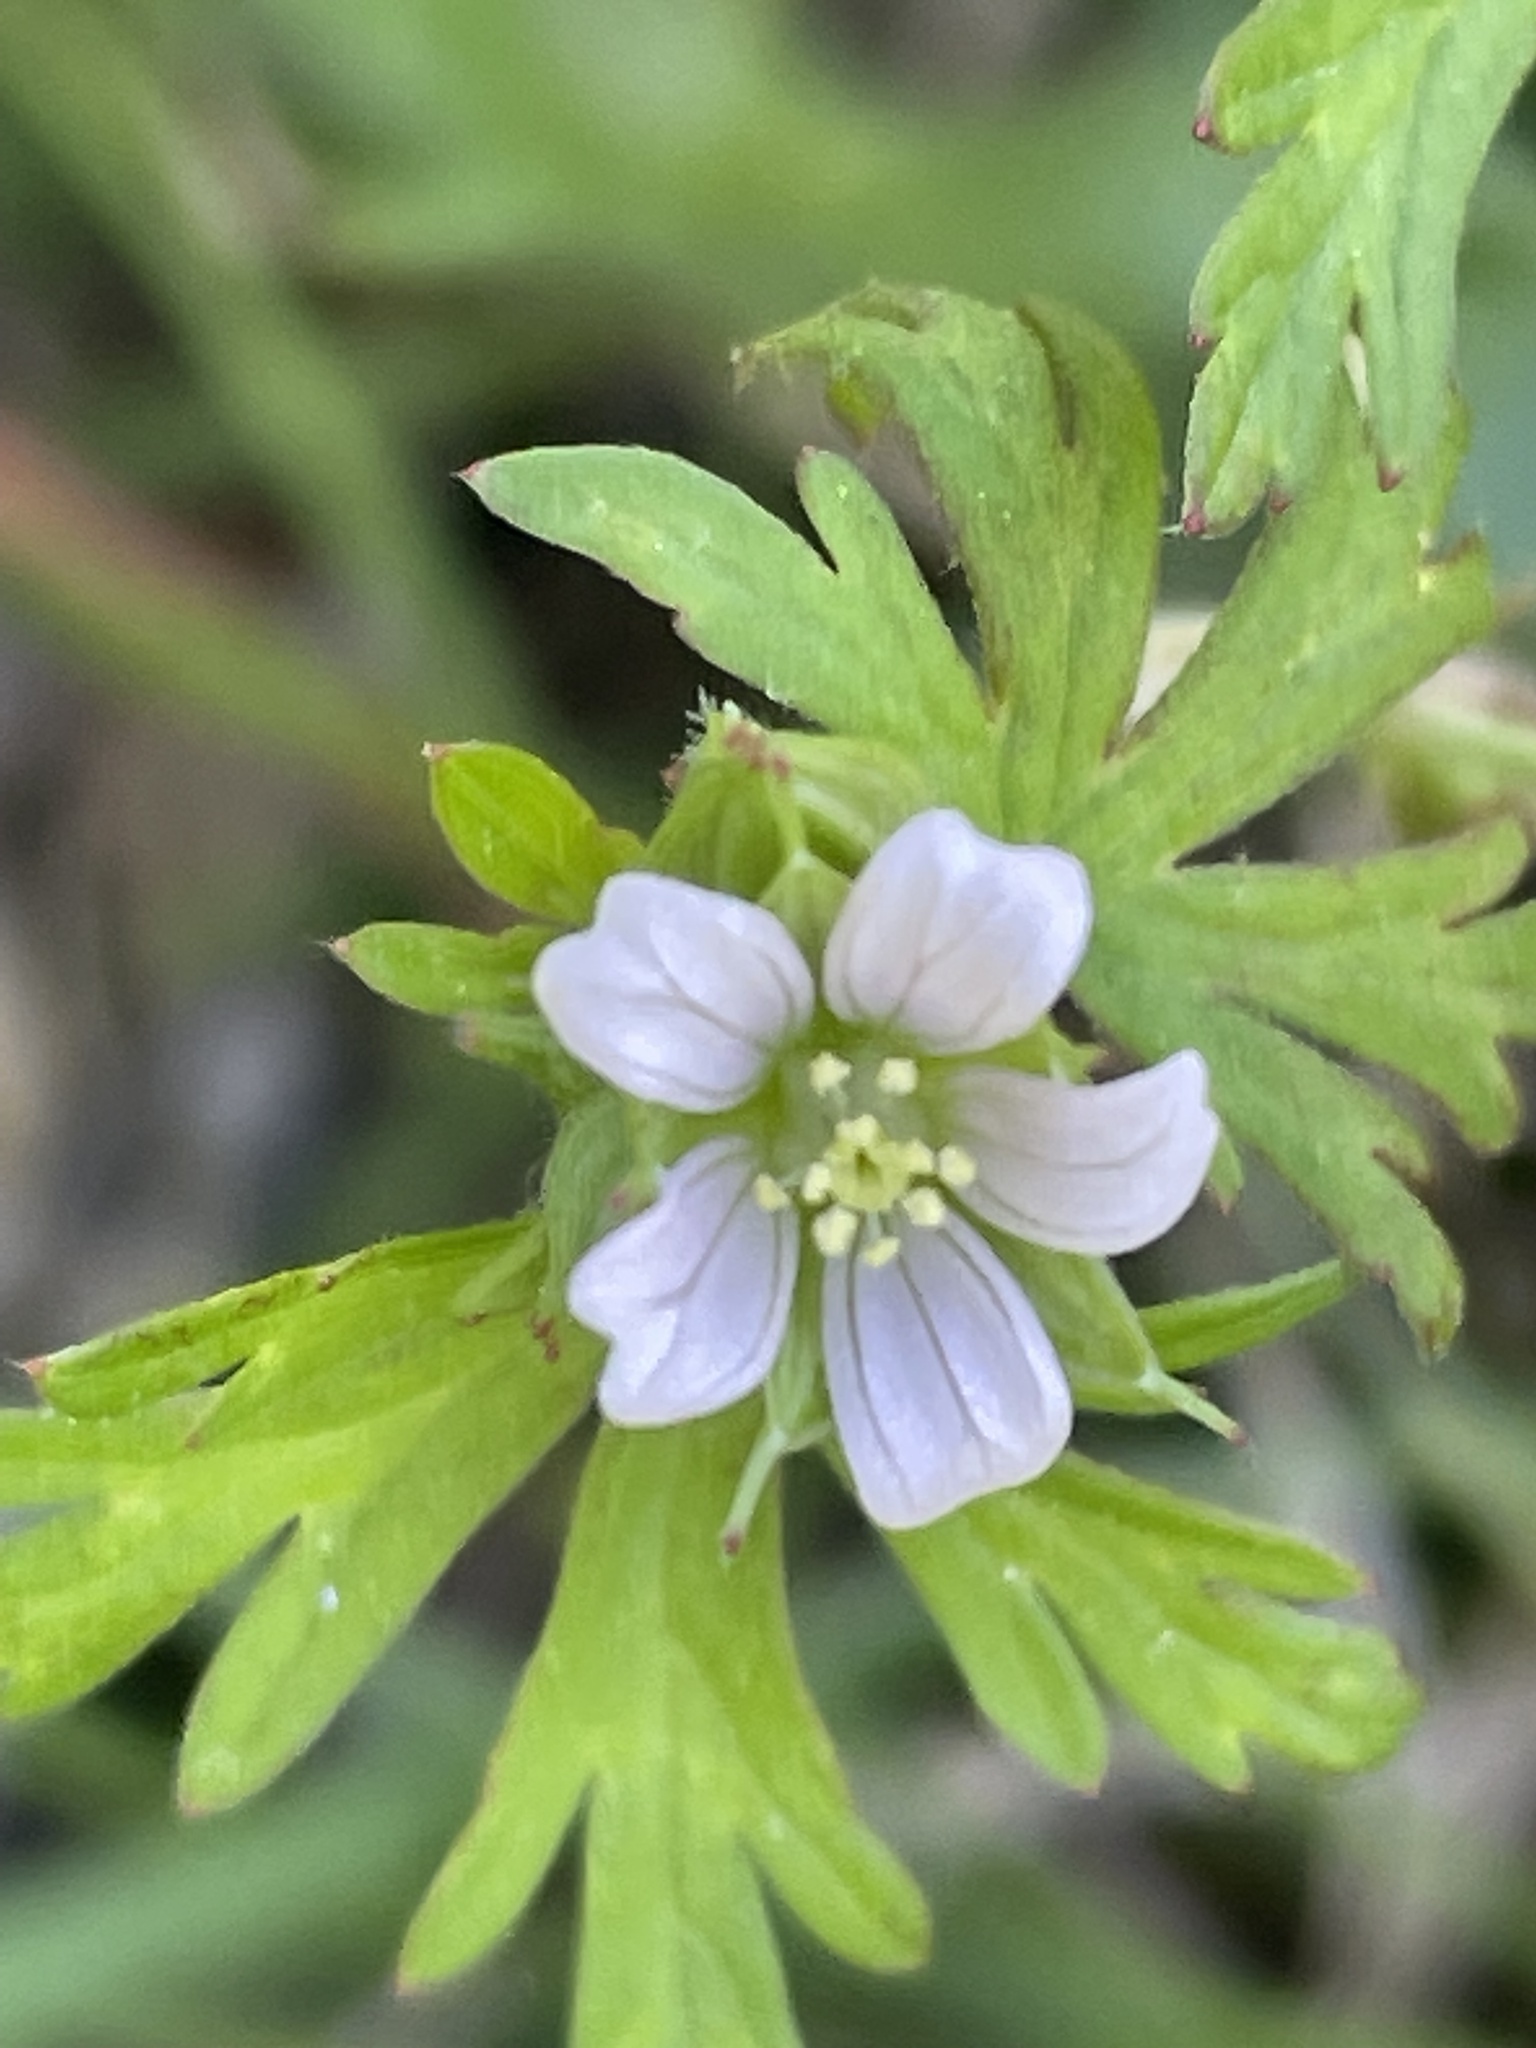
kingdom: Plantae
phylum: Tracheophyta
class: Magnoliopsida
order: Geraniales
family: Geraniaceae
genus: Geranium
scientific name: Geranium carolinianum
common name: Carolina crane's-bill
